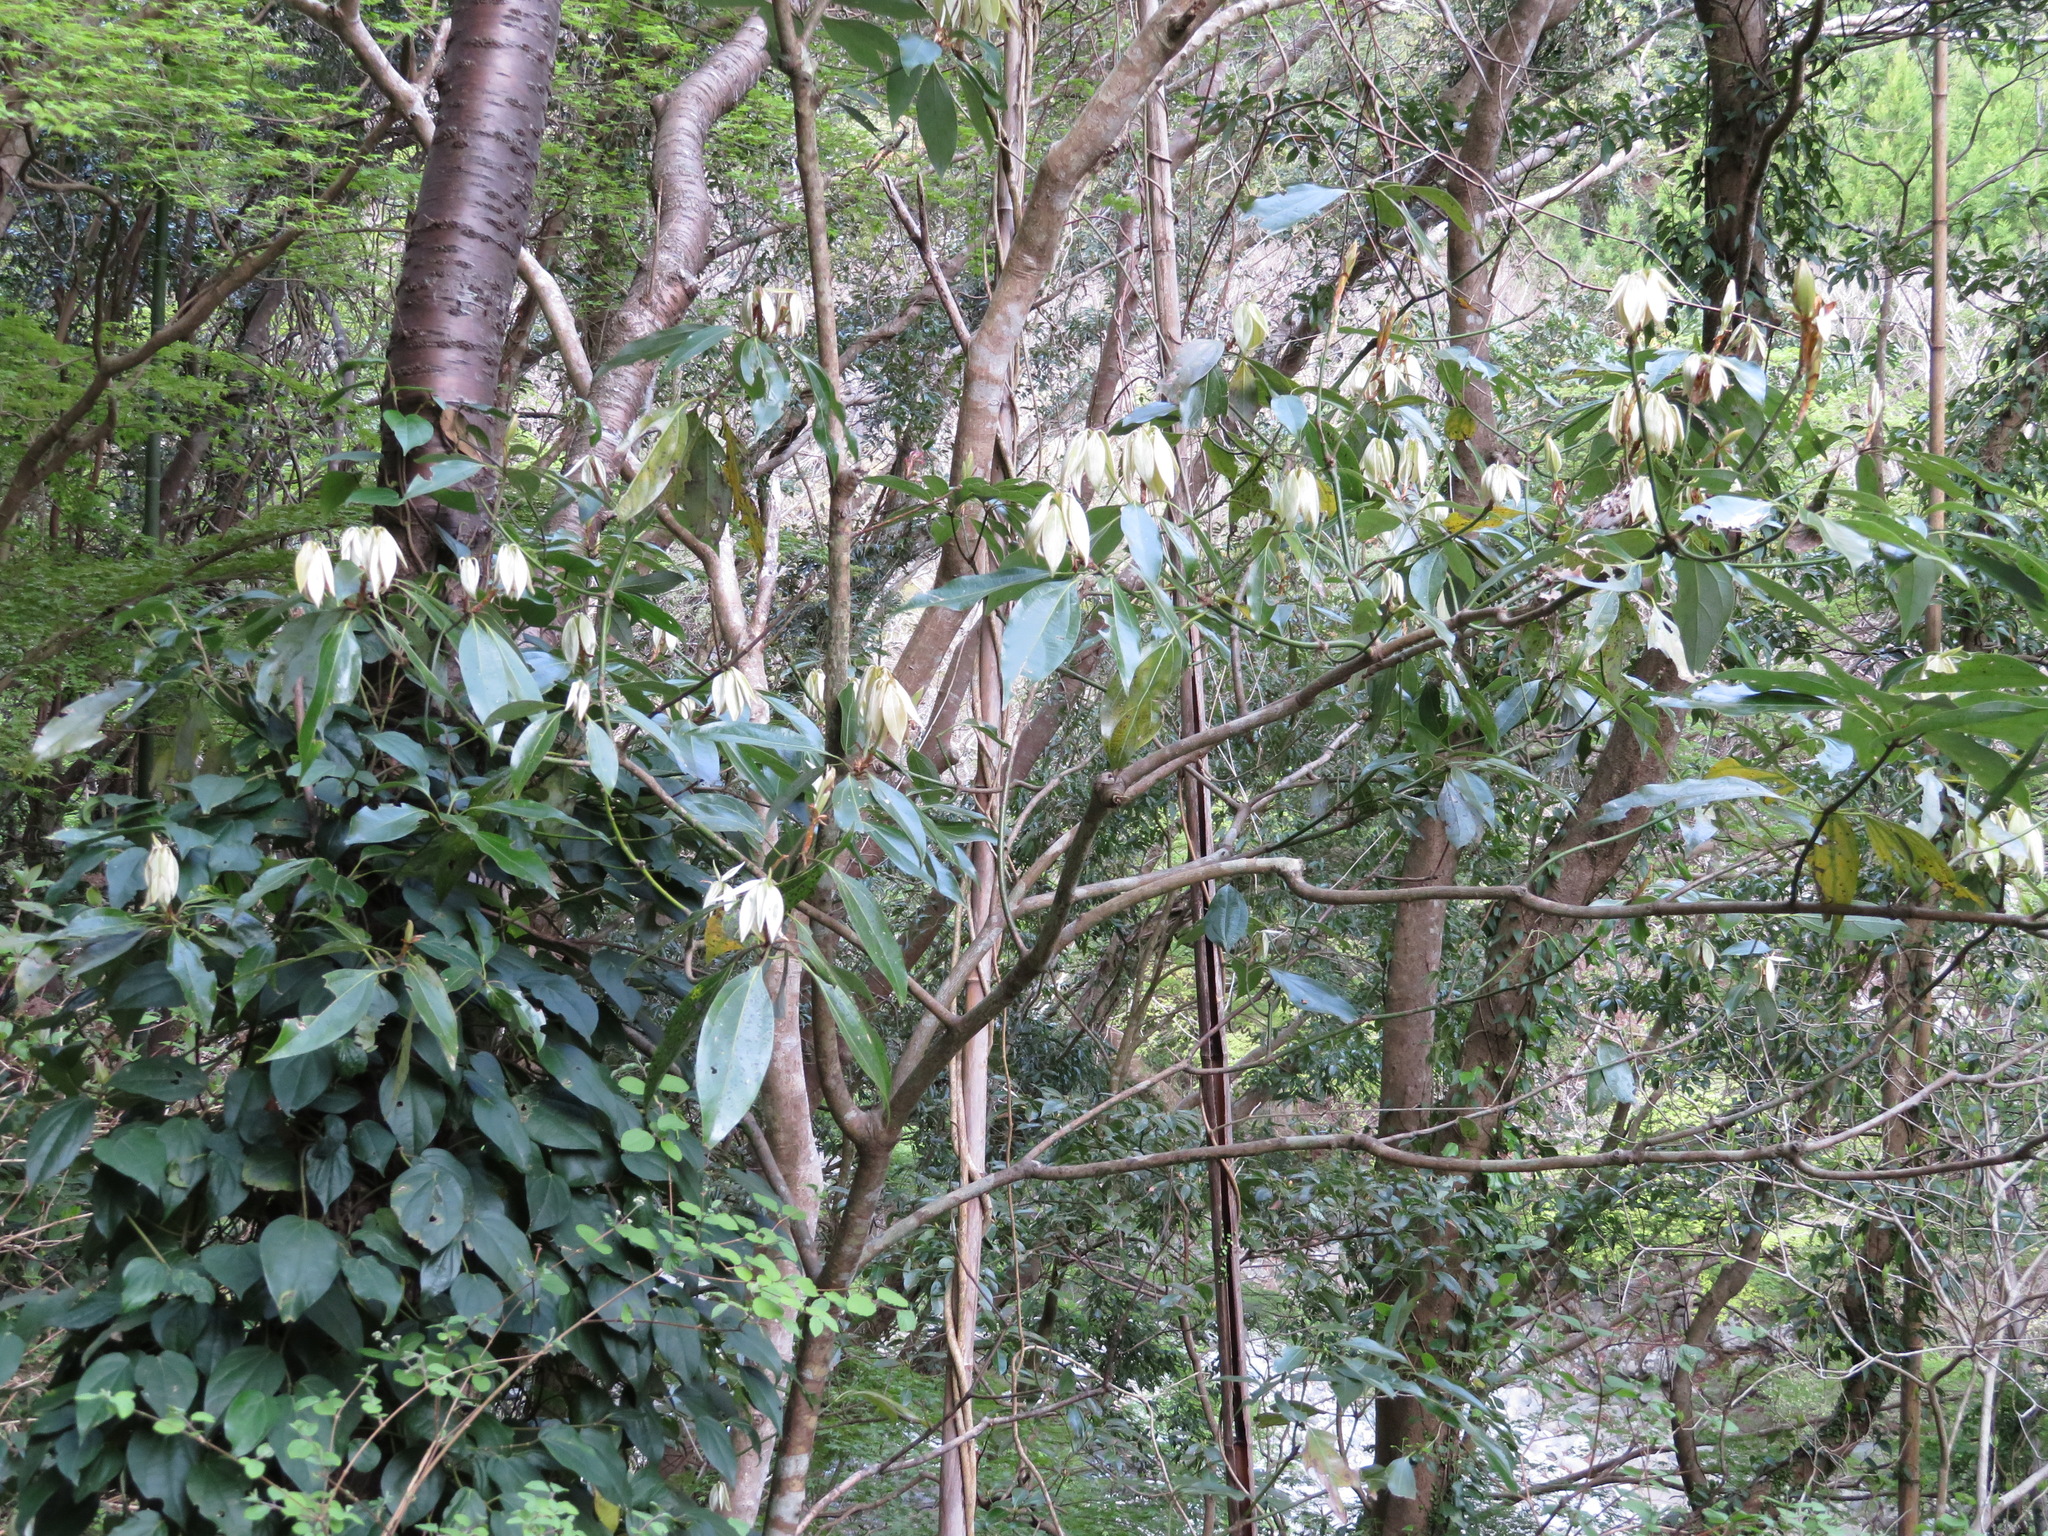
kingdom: Plantae
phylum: Tracheophyta
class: Magnoliopsida
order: Laurales
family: Lauraceae
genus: Neolitsea
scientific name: Neolitsea sericea
